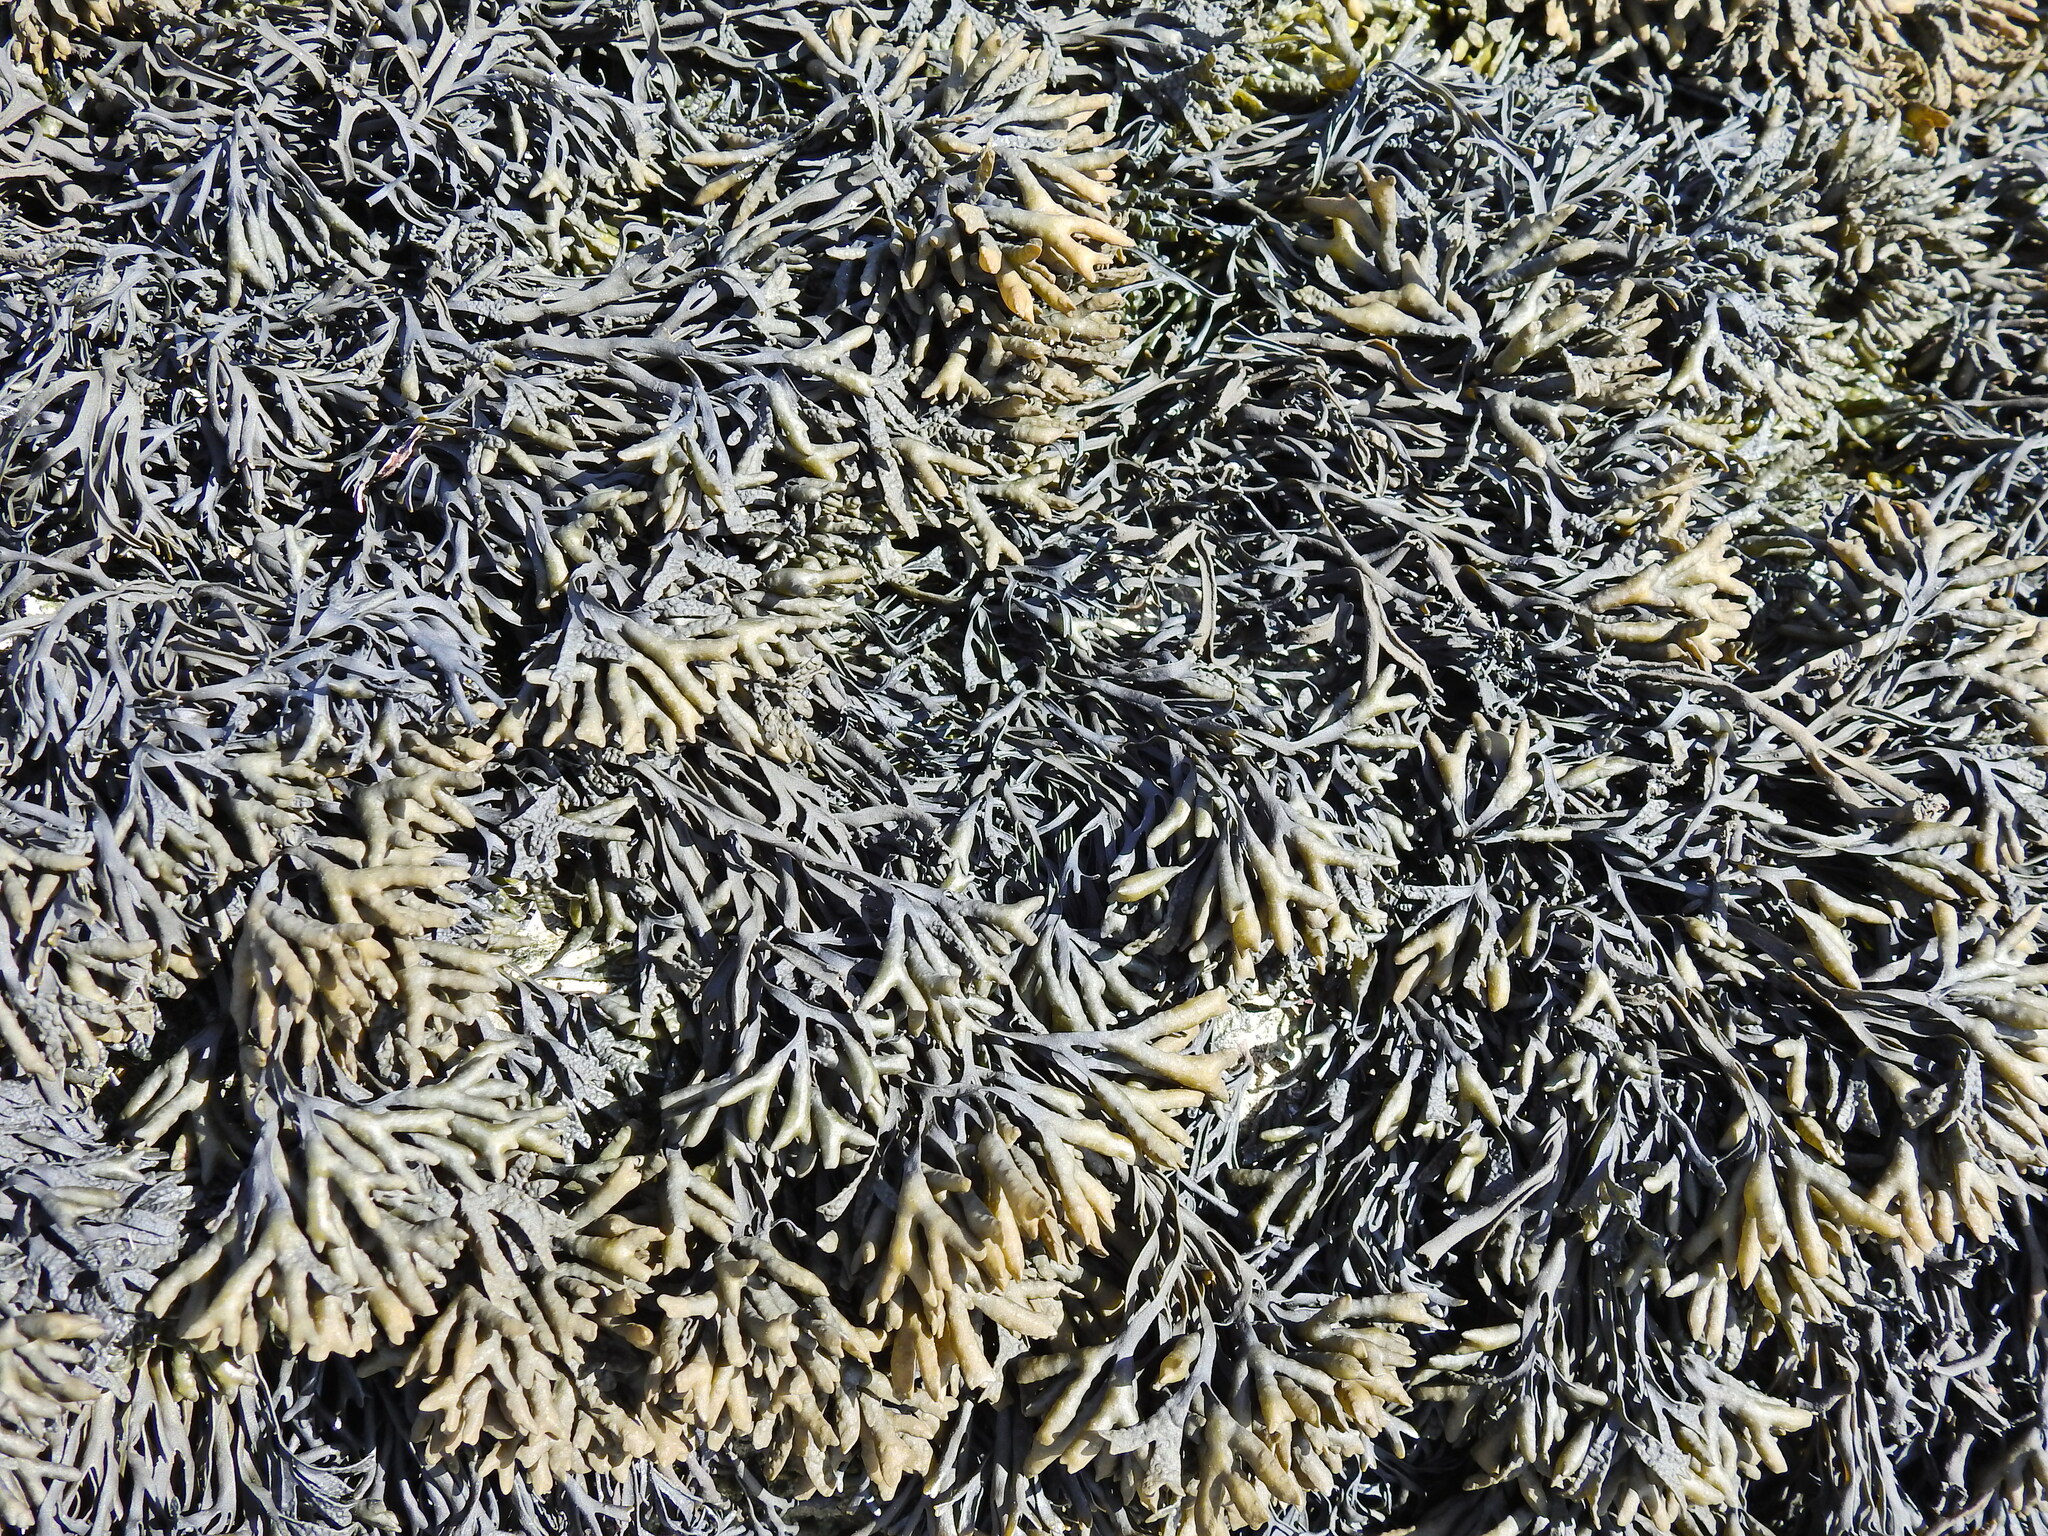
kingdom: Chromista
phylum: Ochrophyta
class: Phaeophyceae
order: Fucales
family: Fucaceae
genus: Pelvetia
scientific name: Pelvetia canaliculata
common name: Channelled wrack
